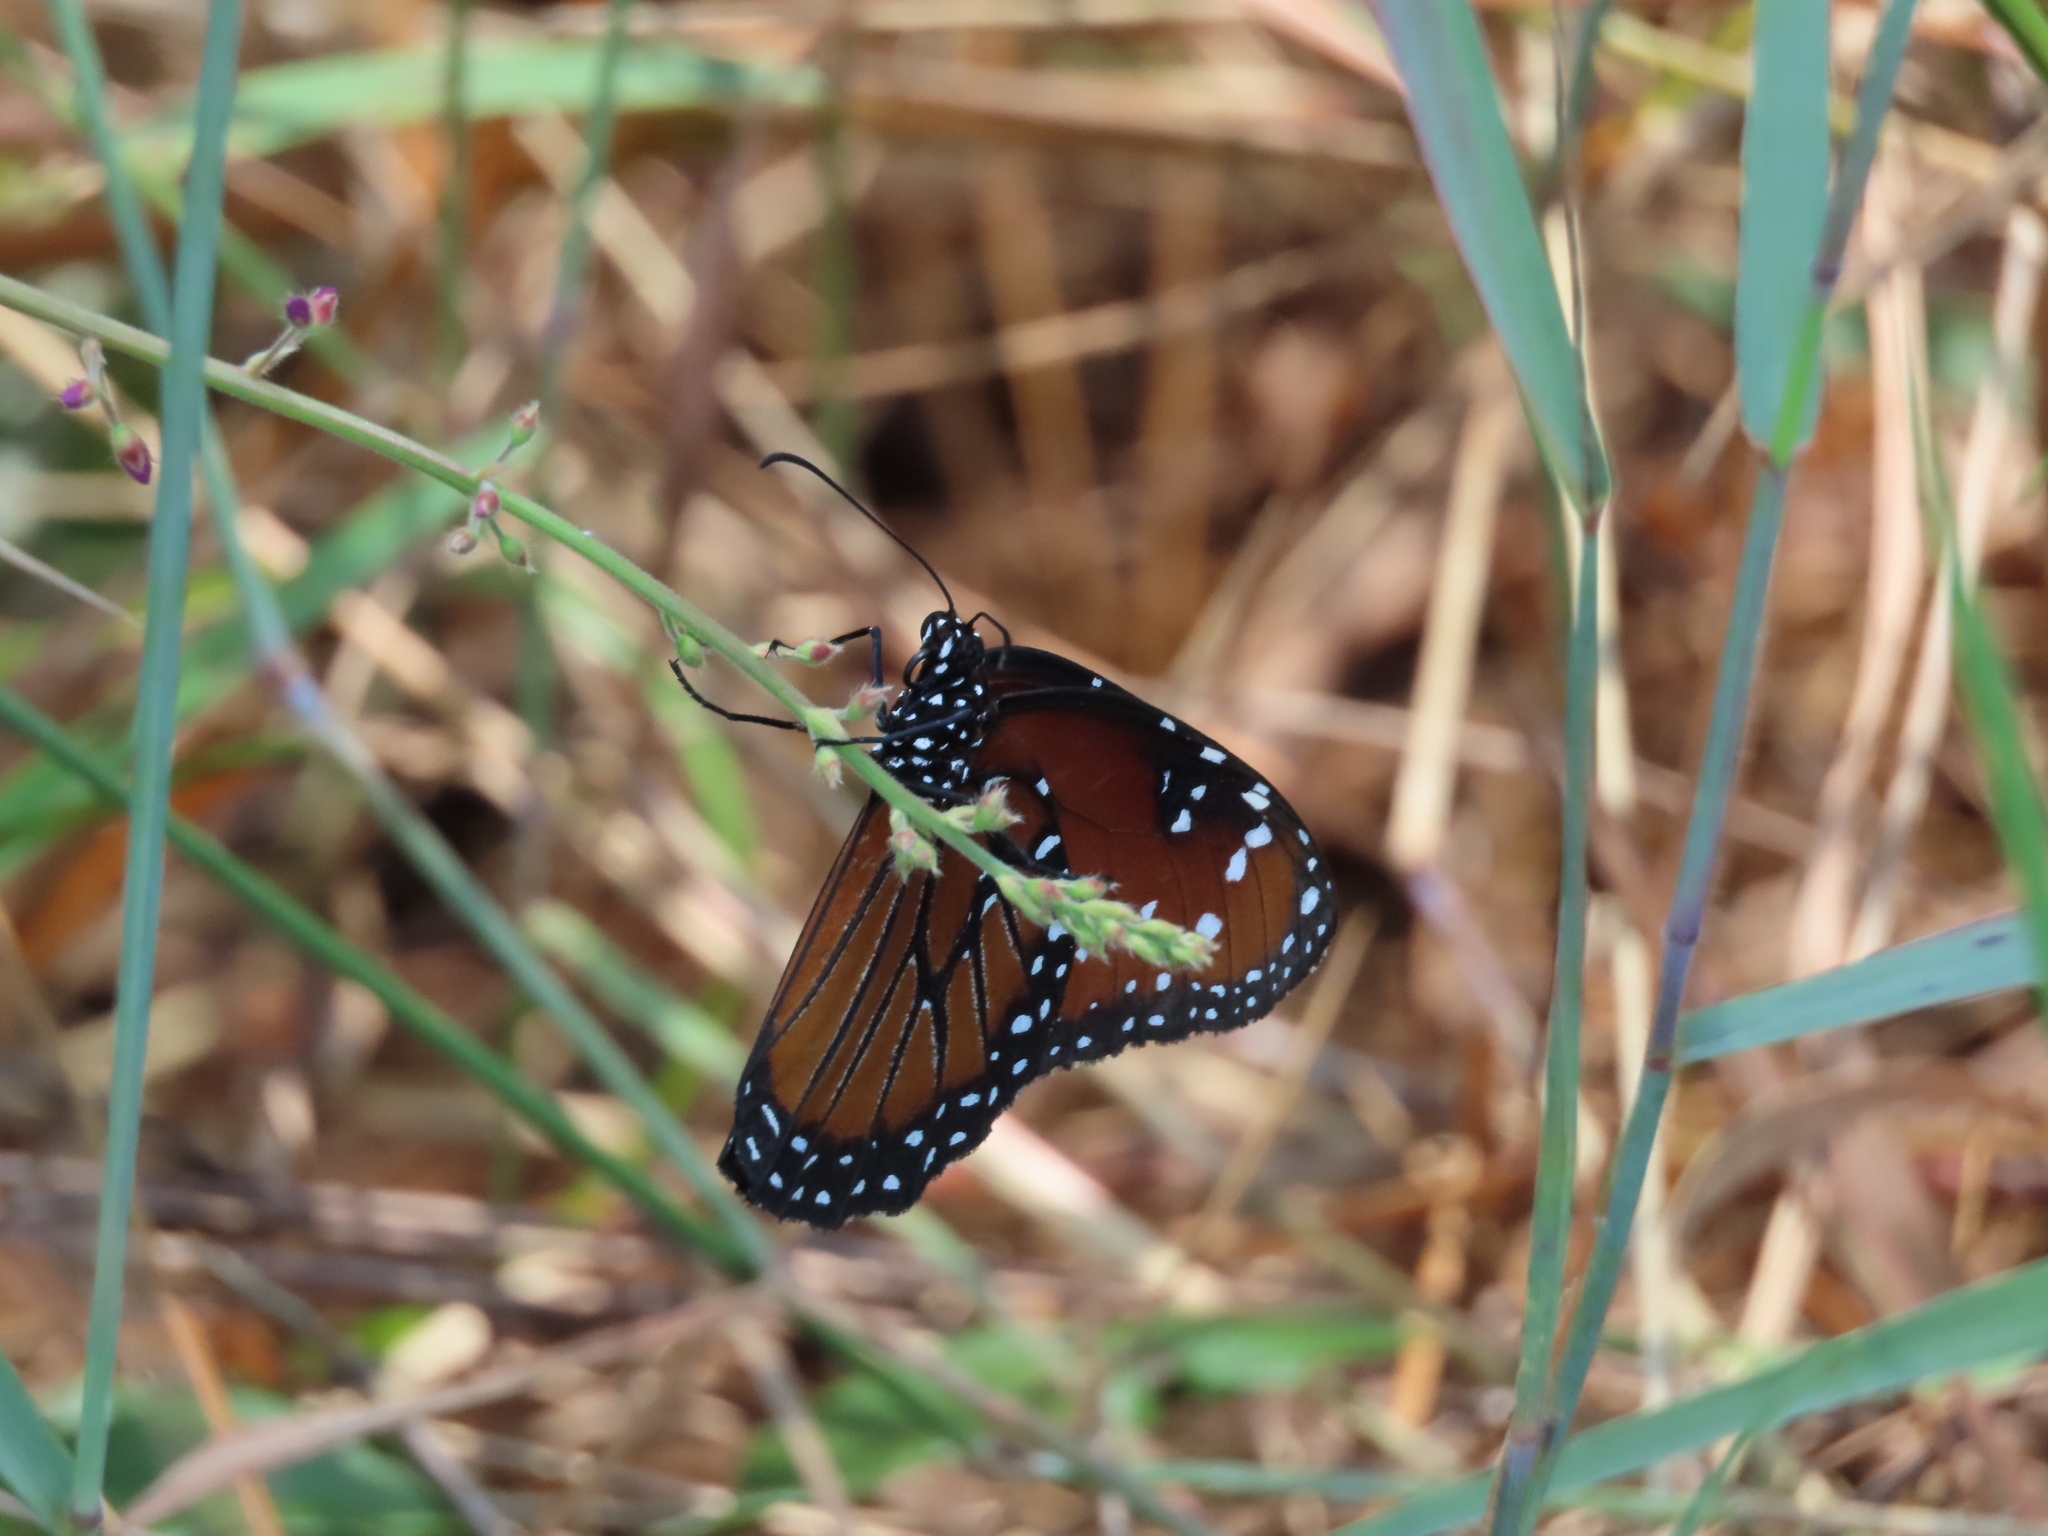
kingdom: Animalia
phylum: Arthropoda
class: Insecta
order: Lepidoptera
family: Nymphalidae
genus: Danaus
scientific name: Danaus gilippus
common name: Queen
